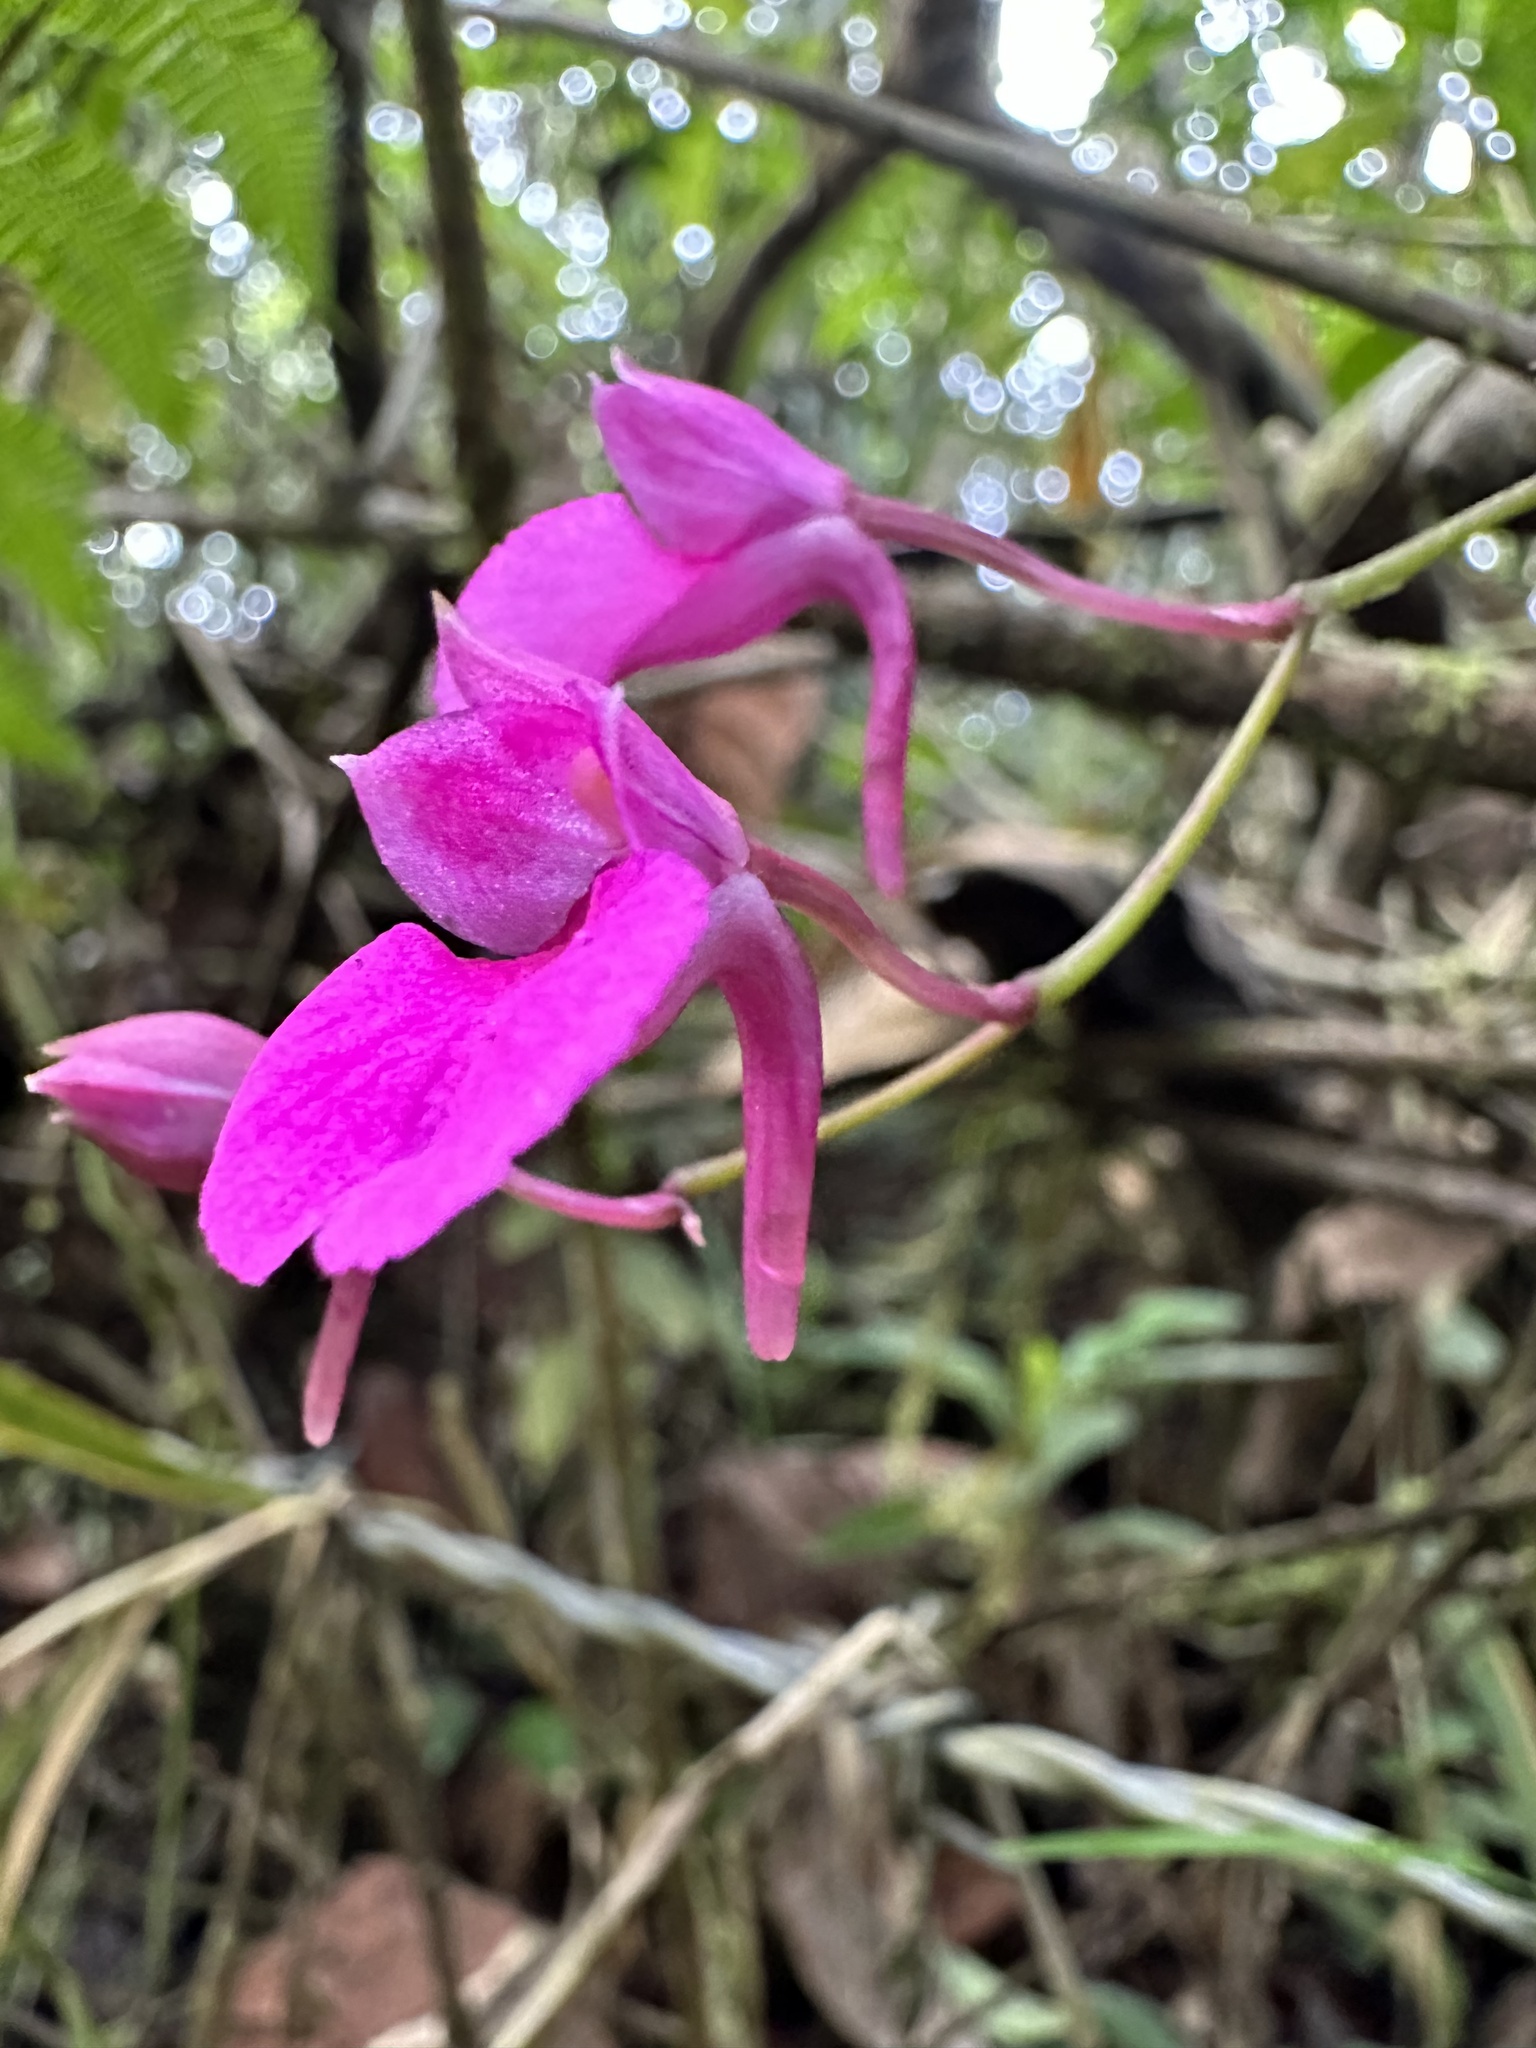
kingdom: Plantae
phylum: Tracheophyta
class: Liliopsida
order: Asparagales
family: Orchidaceae
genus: Comparettia
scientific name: Comparettia falcata
